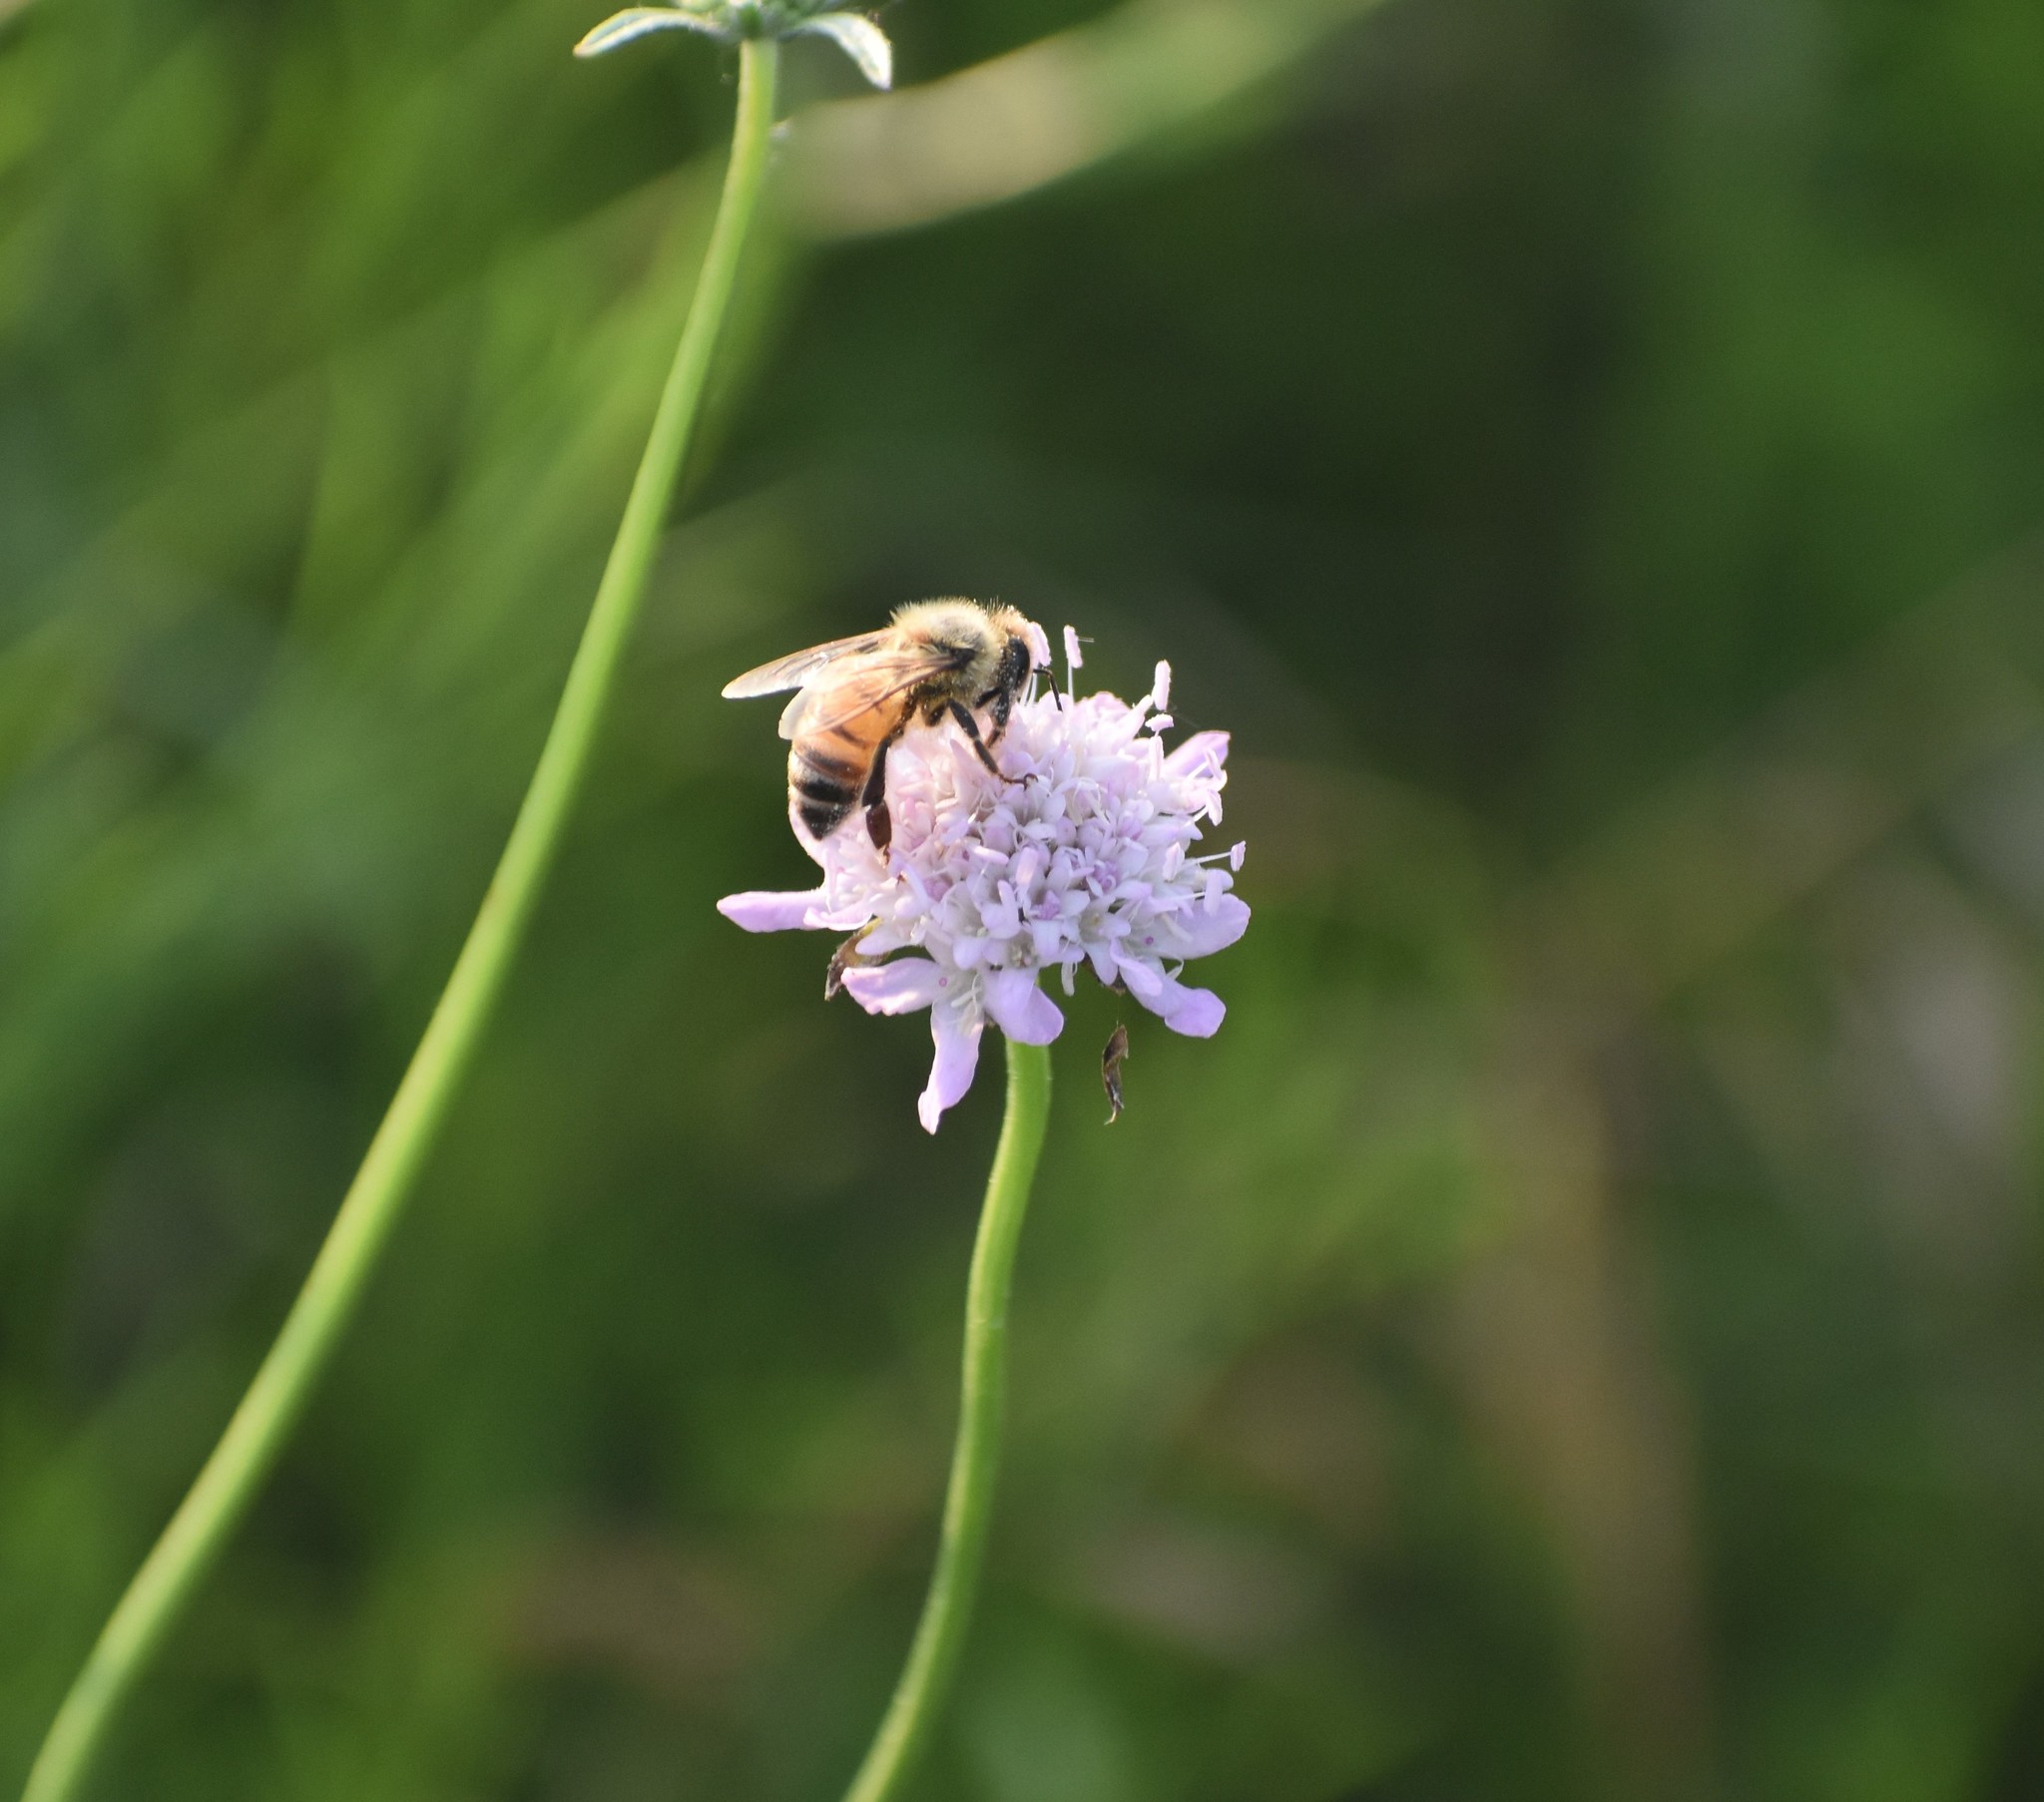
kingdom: Animalia
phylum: Arthropoda
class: Insecta
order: Hymenoptera
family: Apidae
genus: Apis
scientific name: Apis mellifera
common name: Honey bee
